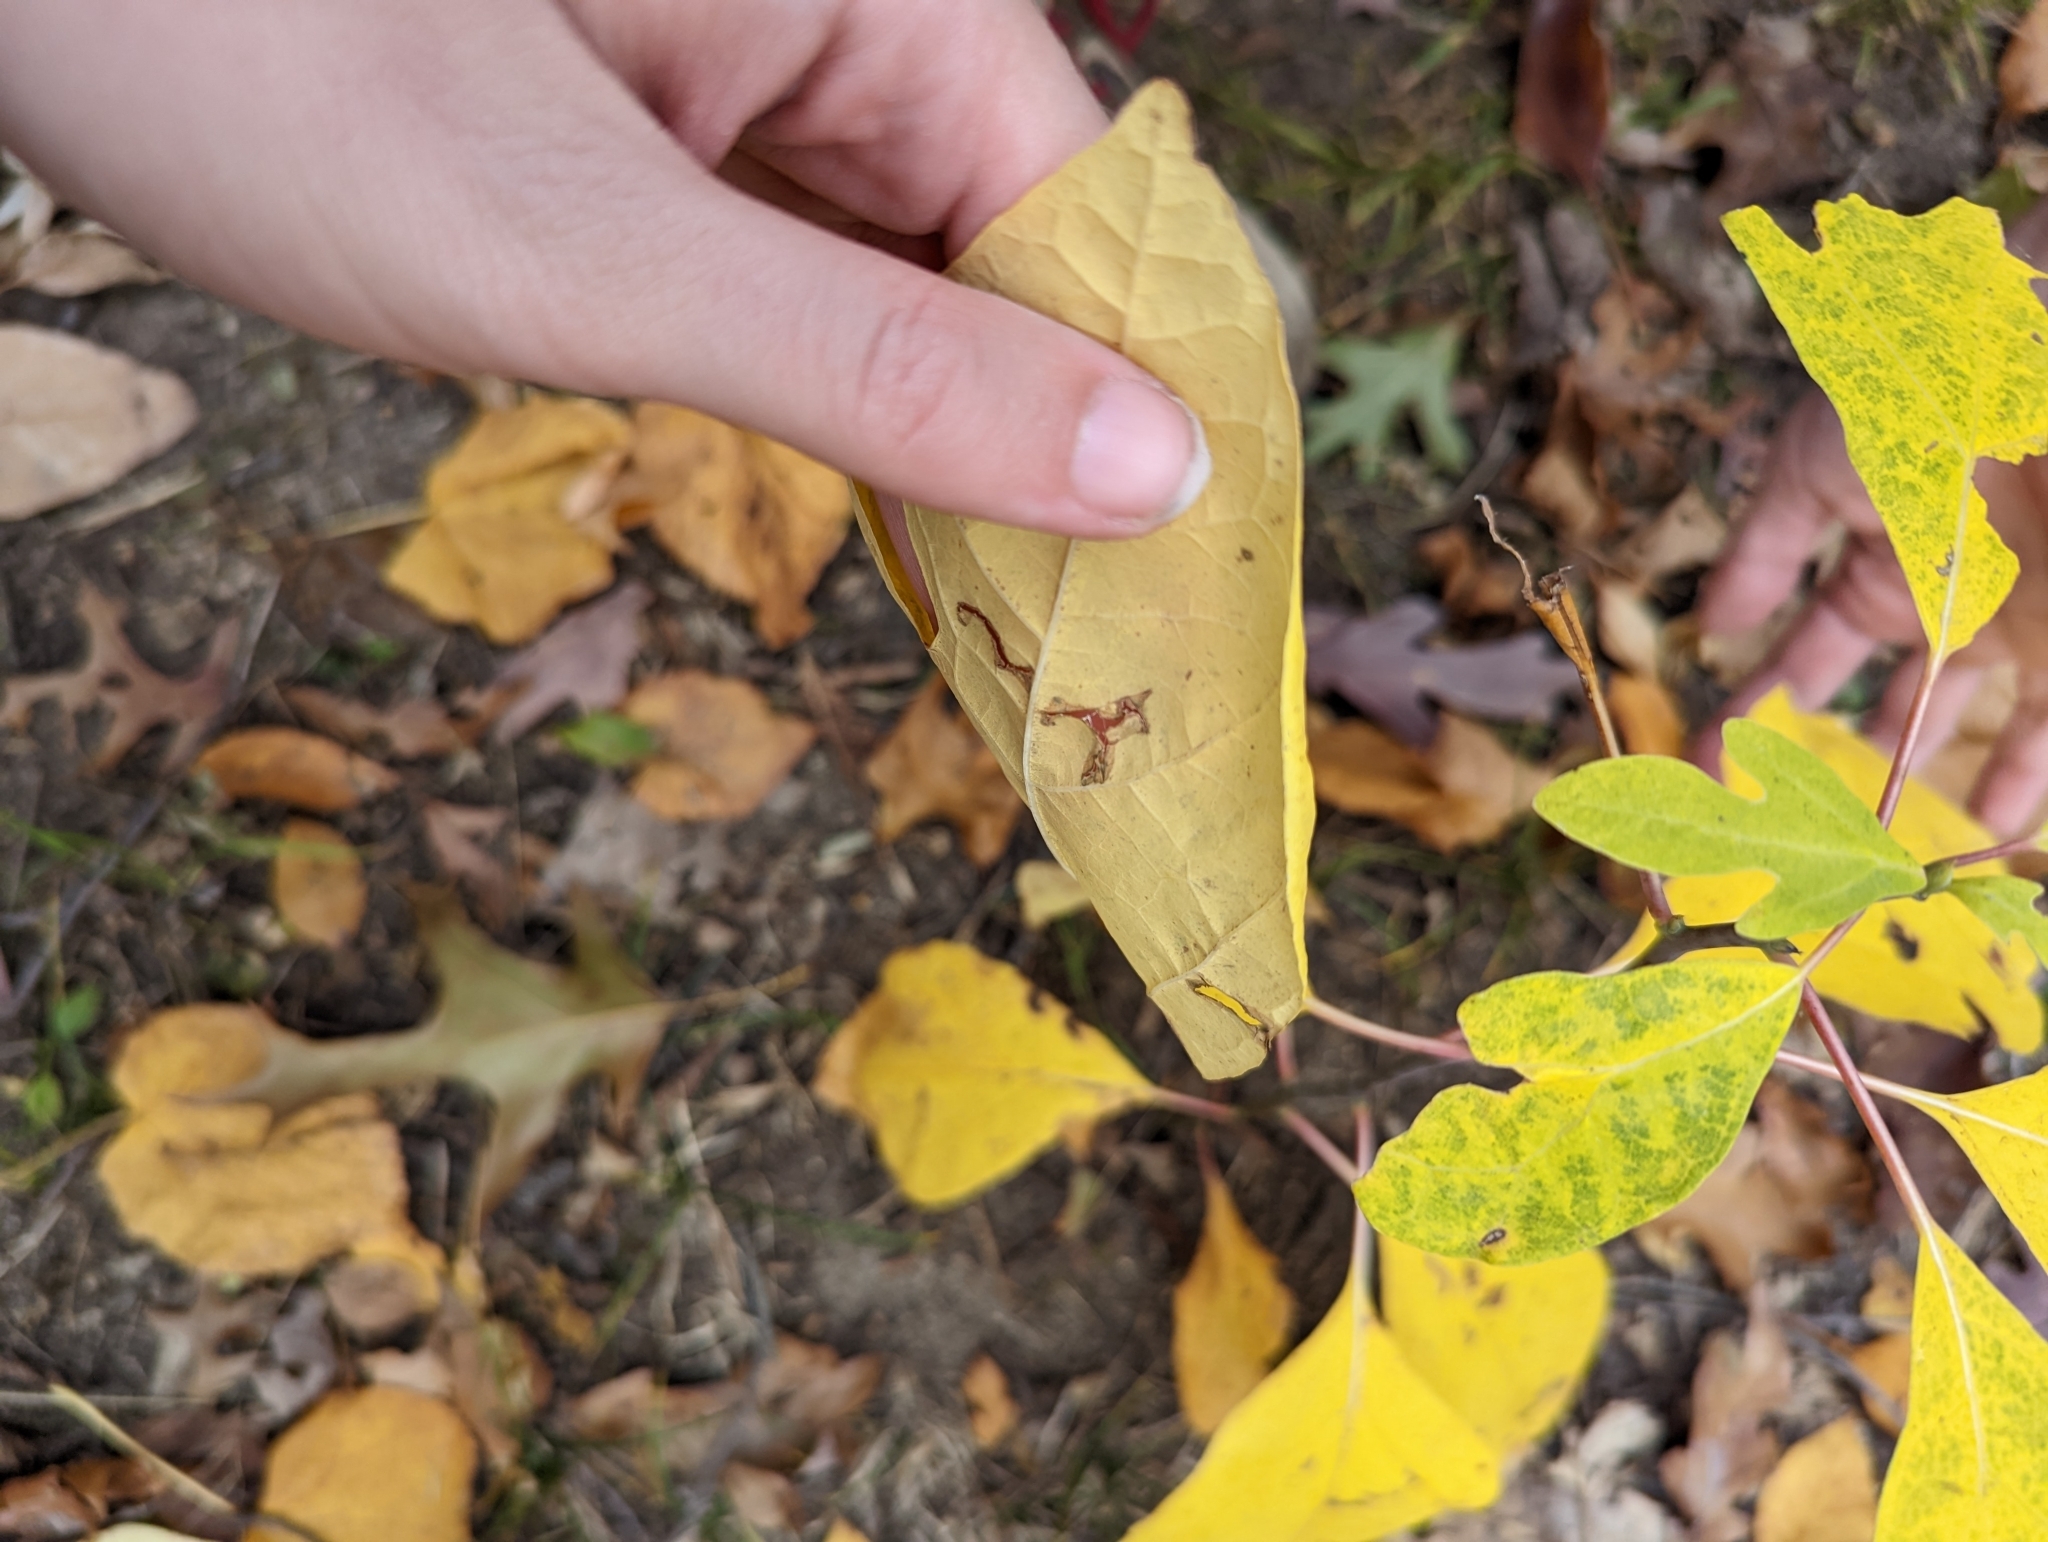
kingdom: Plantae
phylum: Tracheophyta
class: Magnoliopsida
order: Laurales
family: Lauraceae
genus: Sassafras
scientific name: Sassafras albidum
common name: Sassafras
